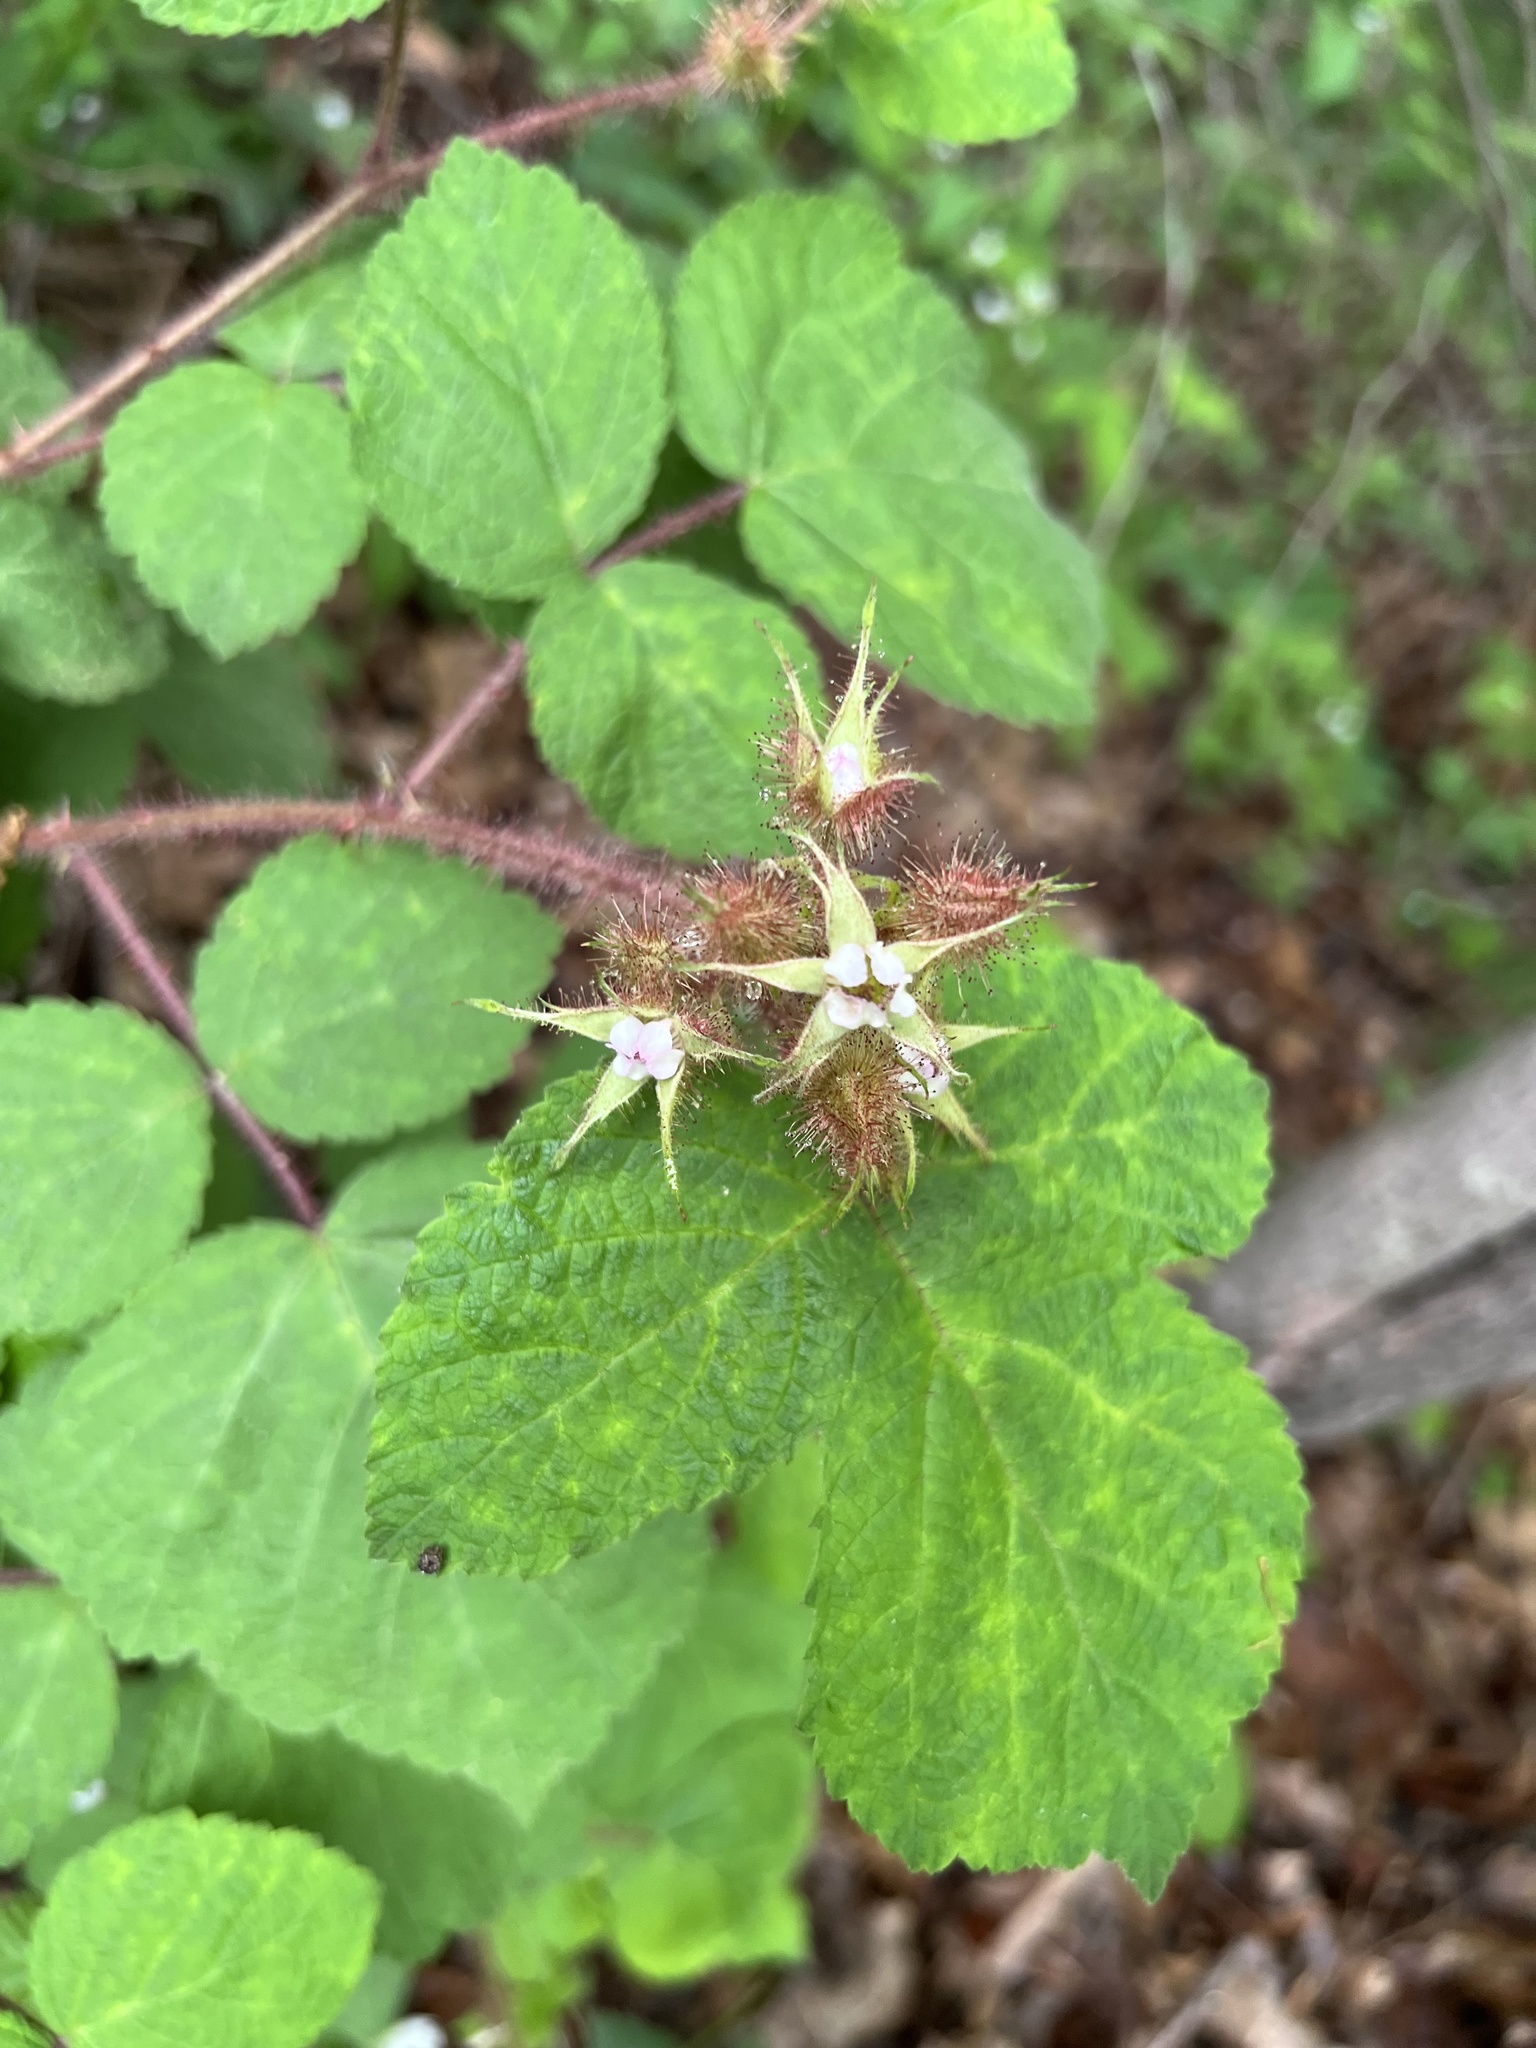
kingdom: Plantae
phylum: Tracheophyta
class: Magnoliopsida
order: Rosales
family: Rosaceae
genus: Rubus
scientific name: Rubus phoenicolasius
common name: Japanese wineberry
